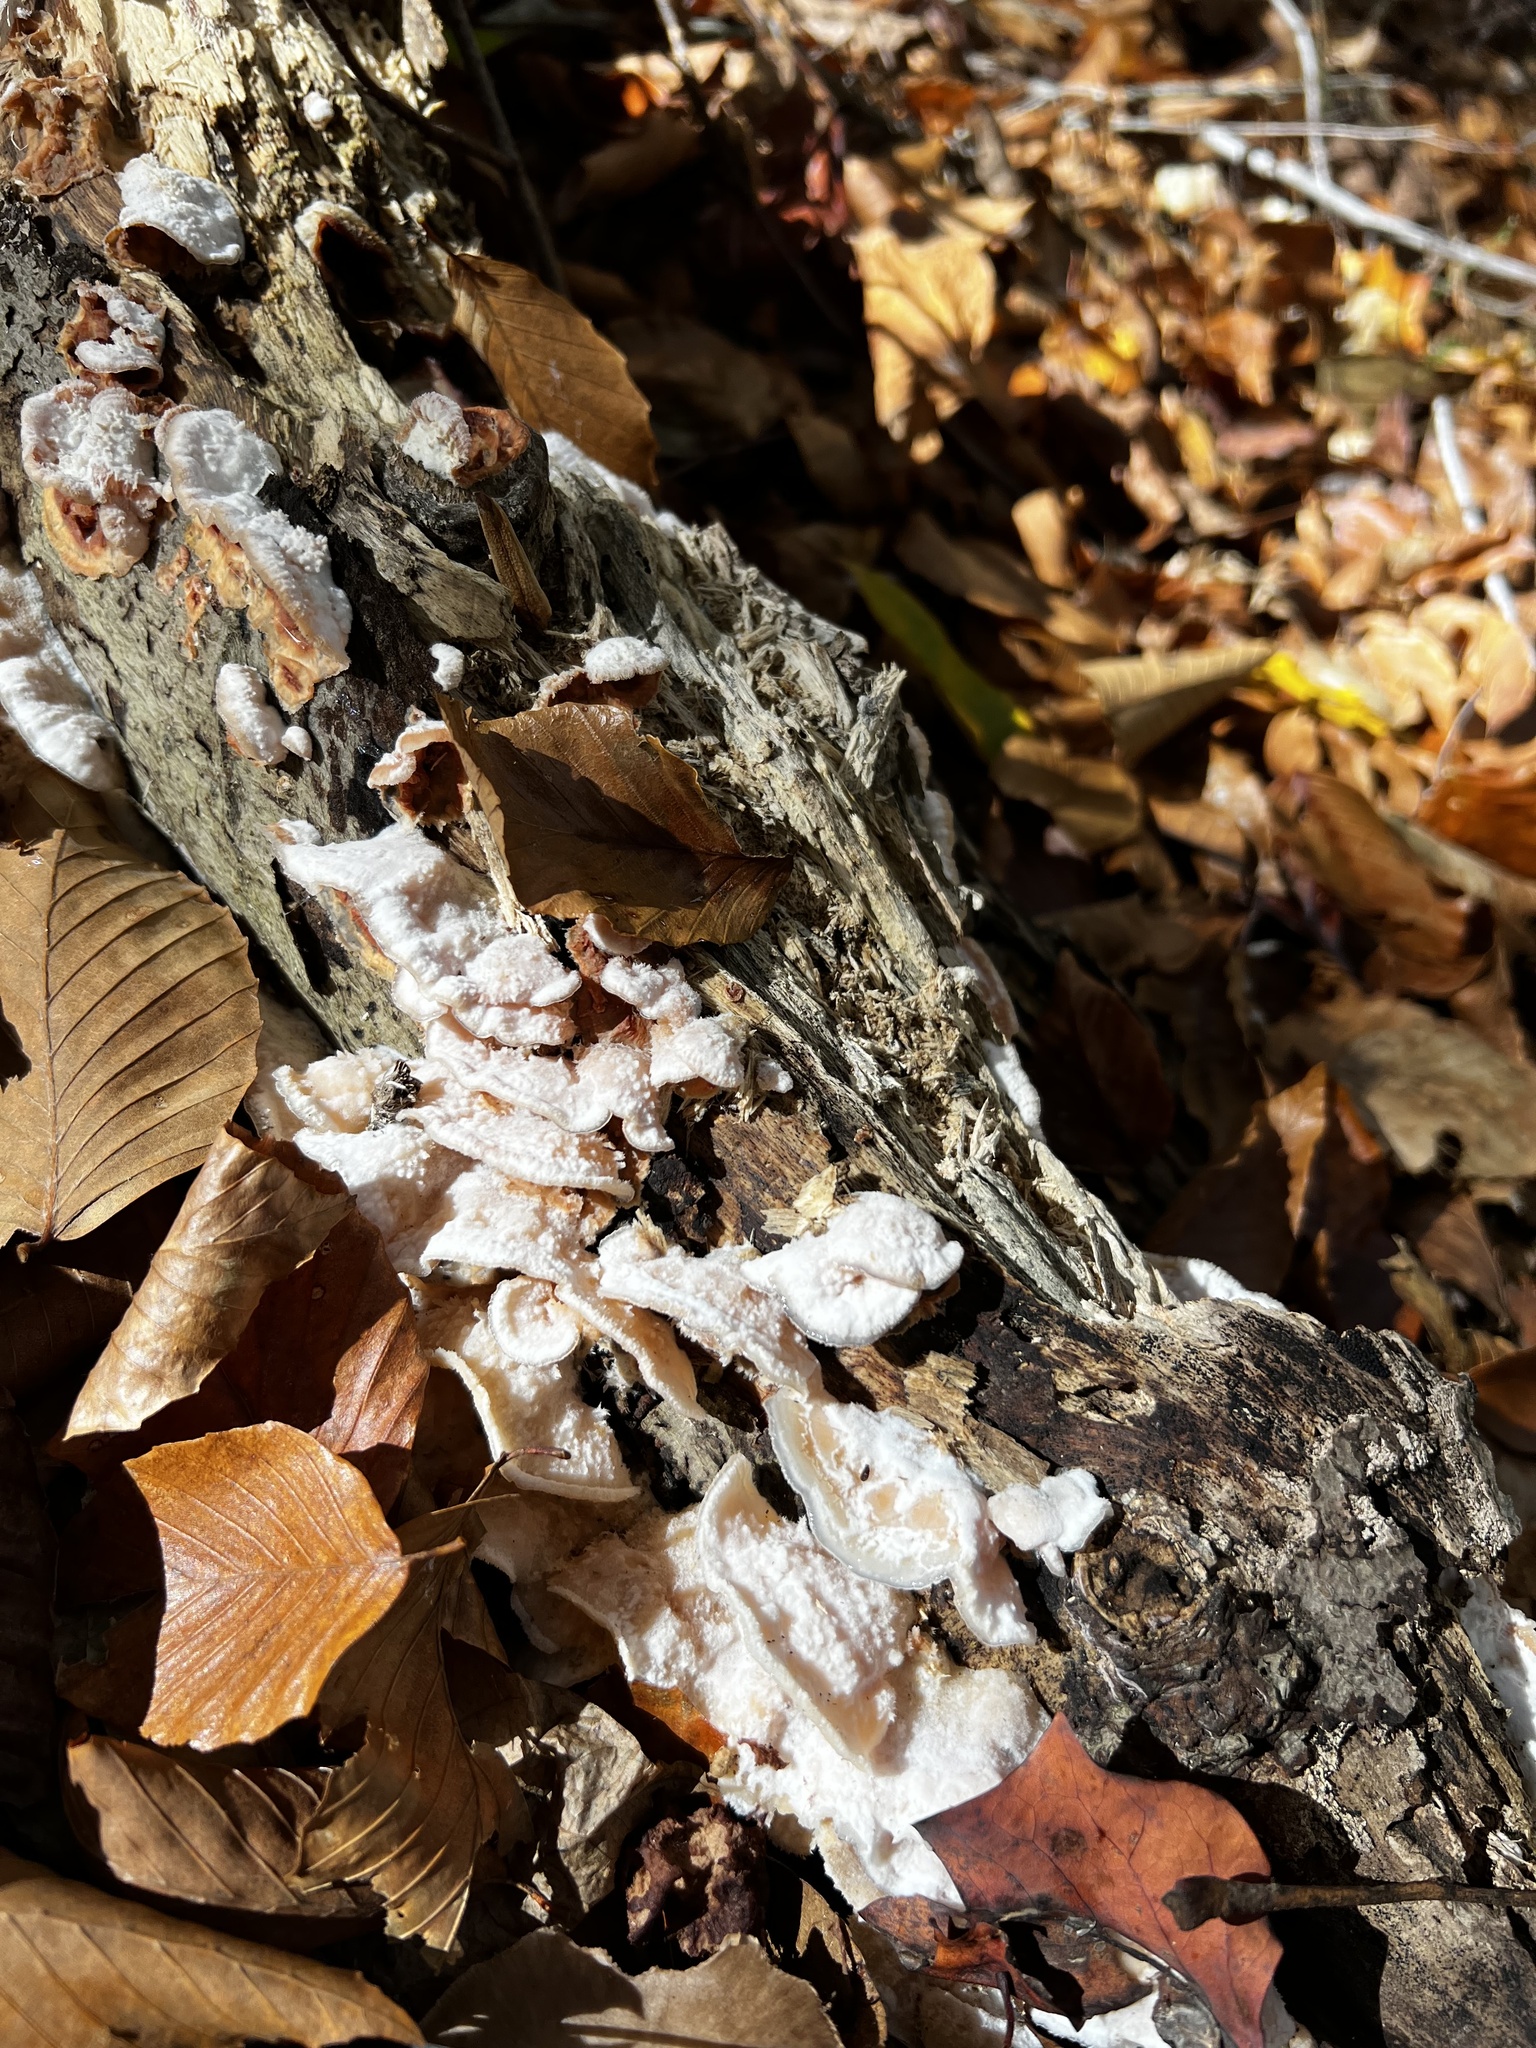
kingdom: Fungi
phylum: Basidiomycota
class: Agaricomycetes
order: Polyporales
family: Meruliaceae
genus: Phlebia
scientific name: Phlebia tremellosa
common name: Jelly rot
